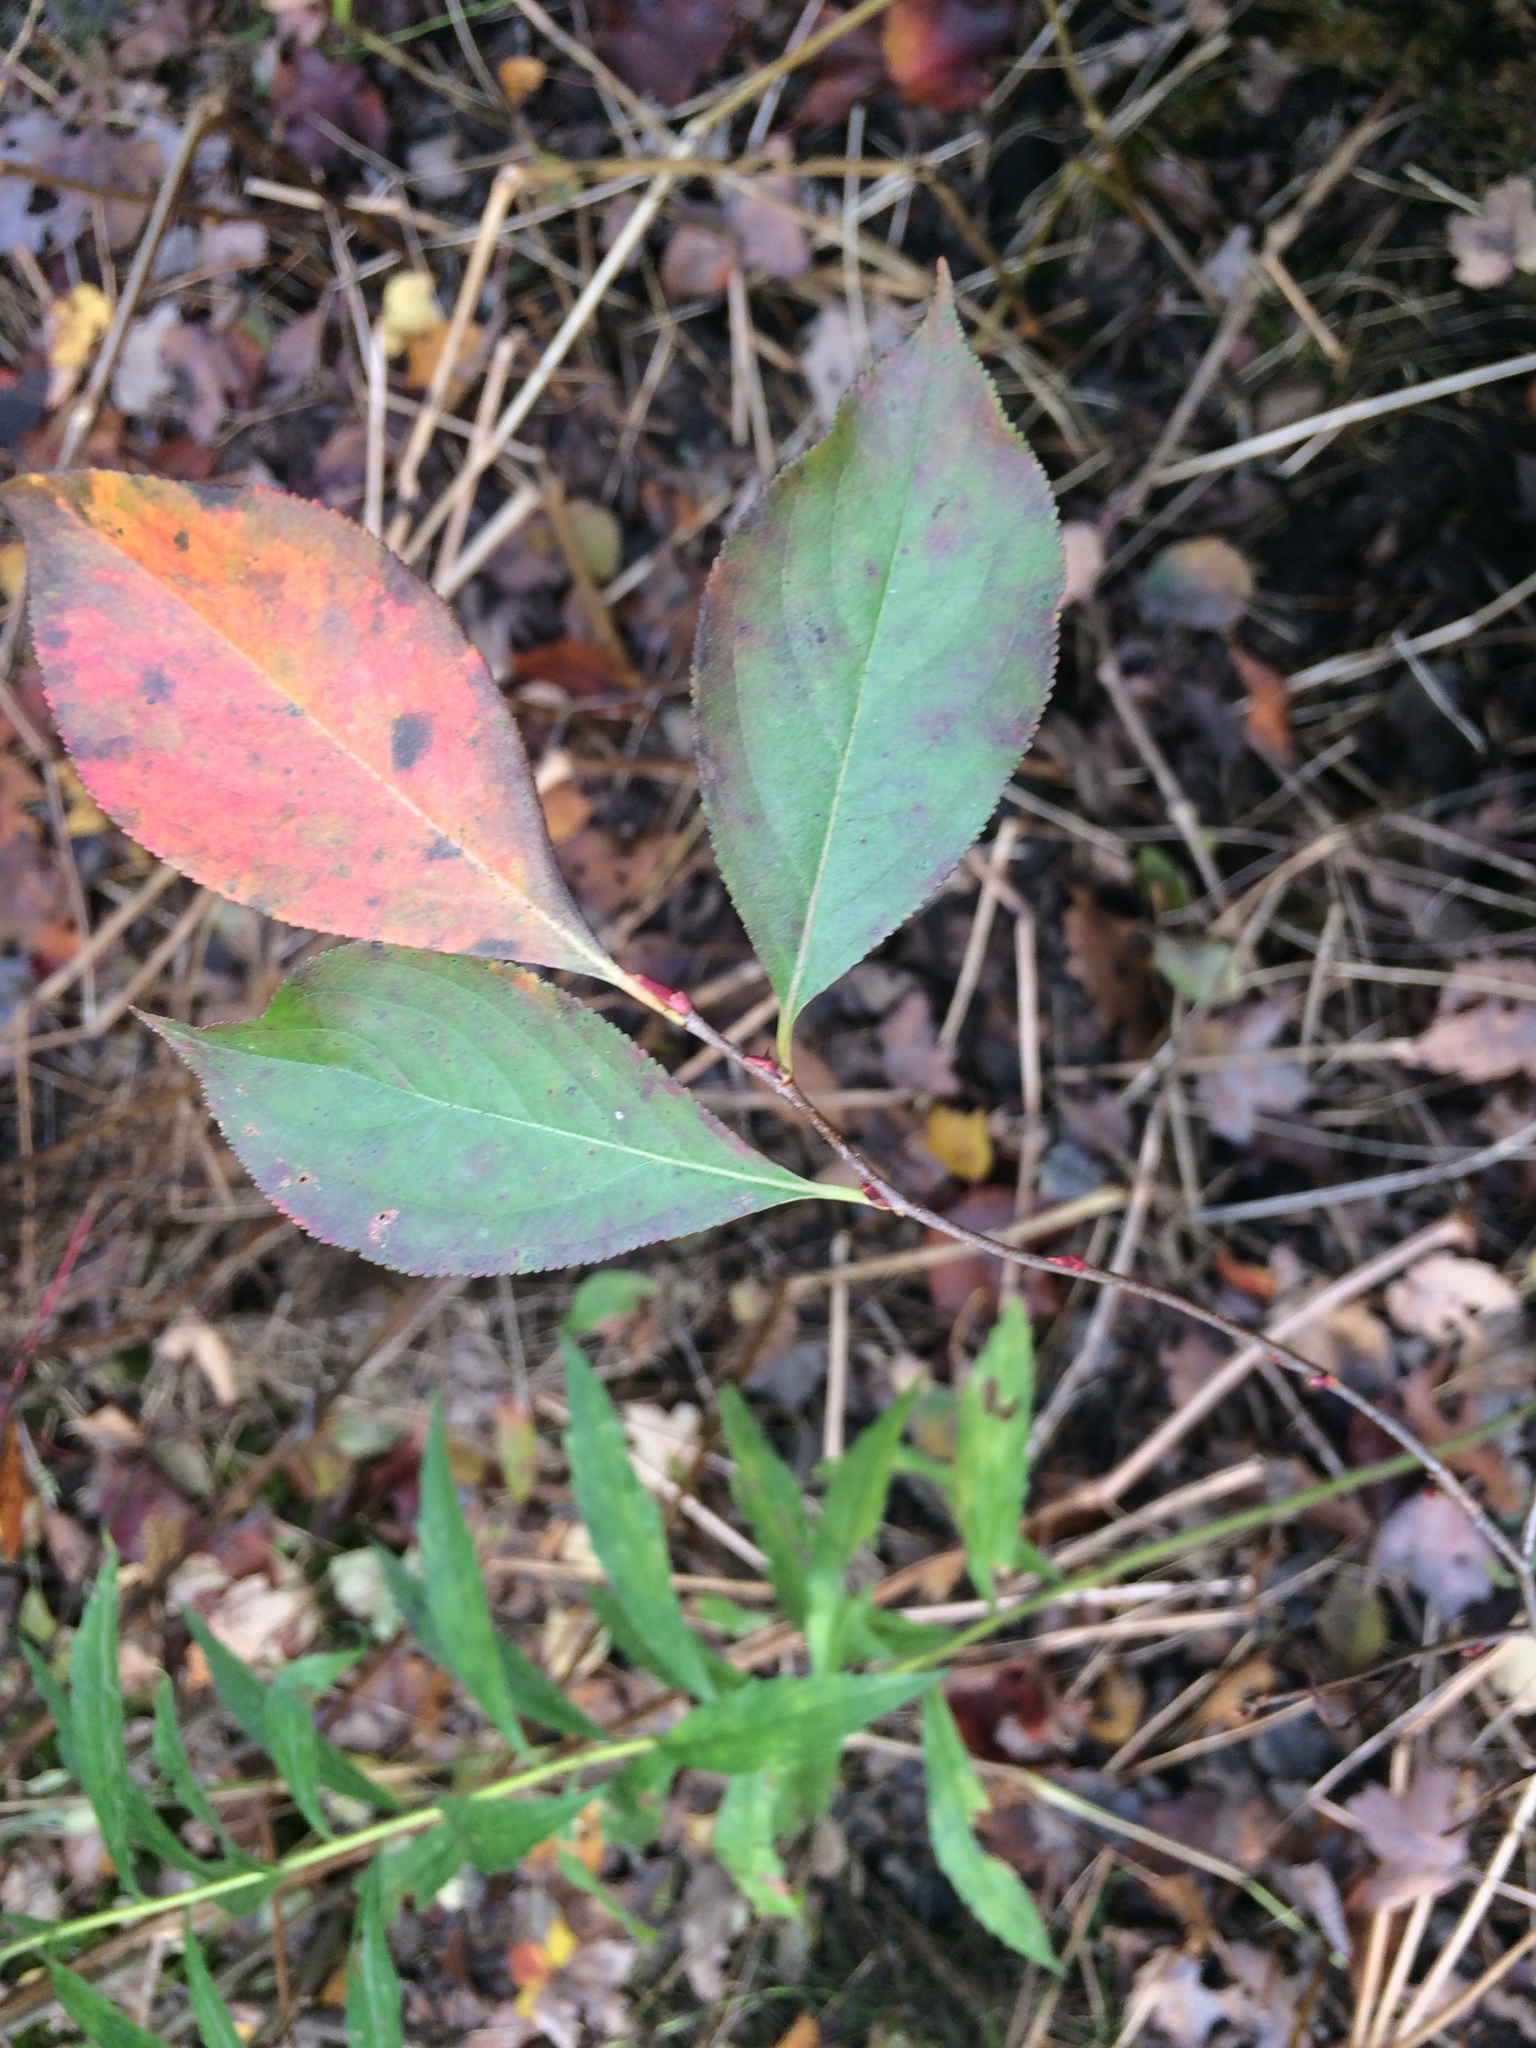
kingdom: Plantae
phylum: Tracheophyta
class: Magnoliopsida
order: Rosales
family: Rosaceae
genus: Aronia
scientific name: Aronia melanocarpa
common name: Black chokeberry
